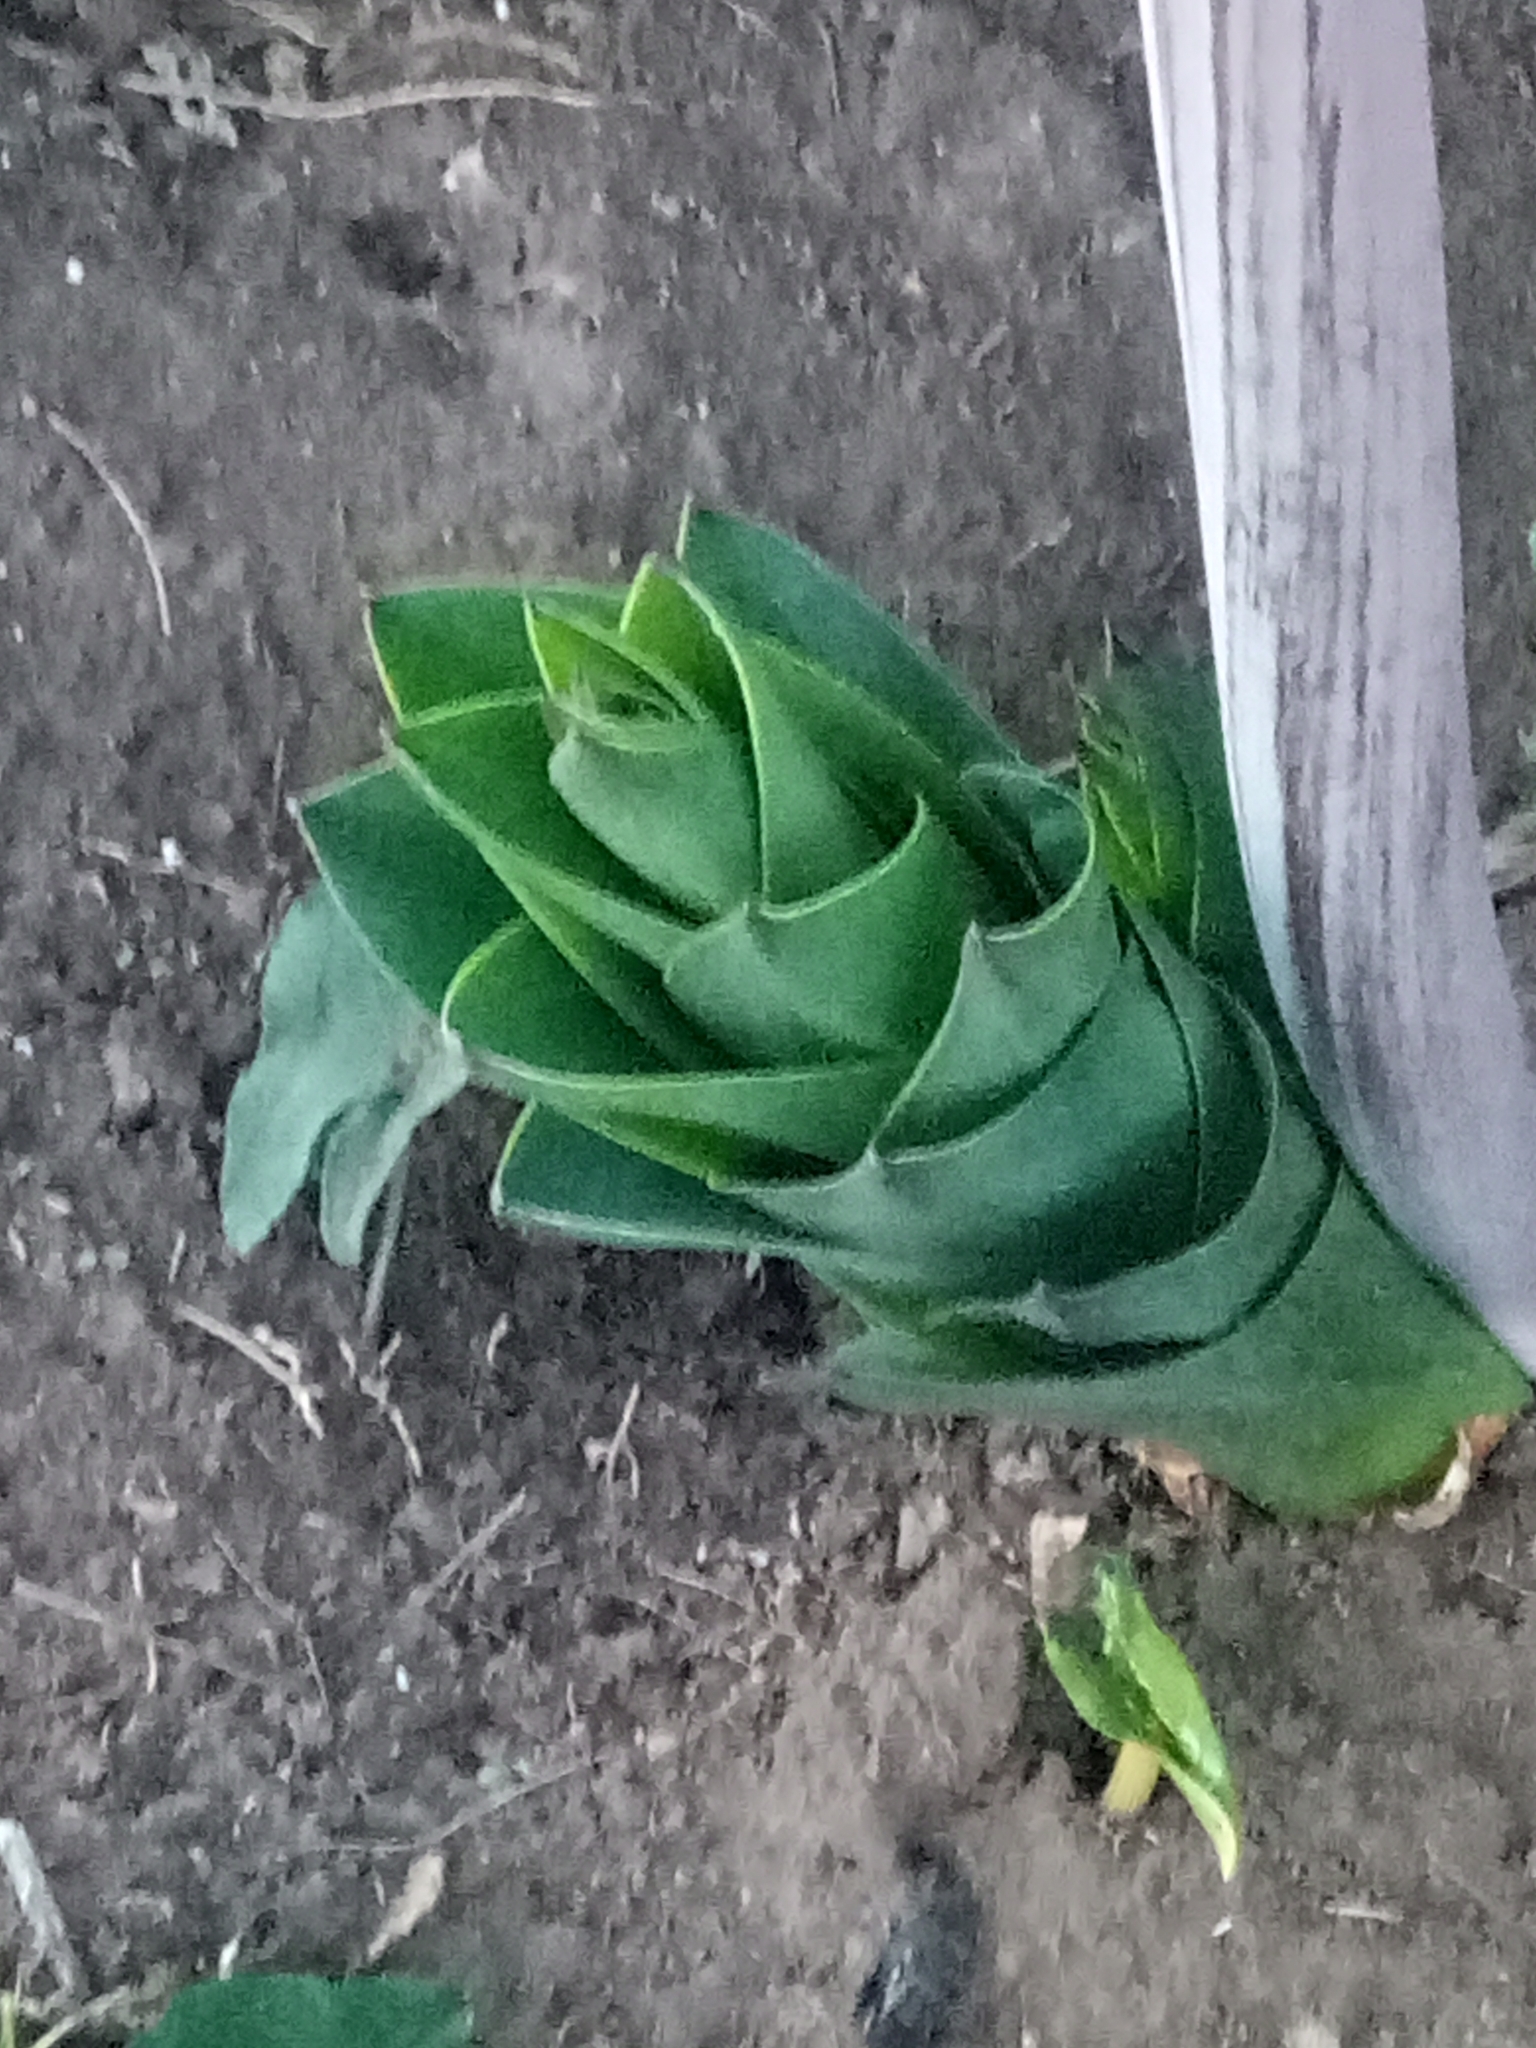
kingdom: Plantae
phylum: Tracheophyta
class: Liliopsida
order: Asparagales
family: Asparagaceae
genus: Drimia
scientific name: Drimia numidica
